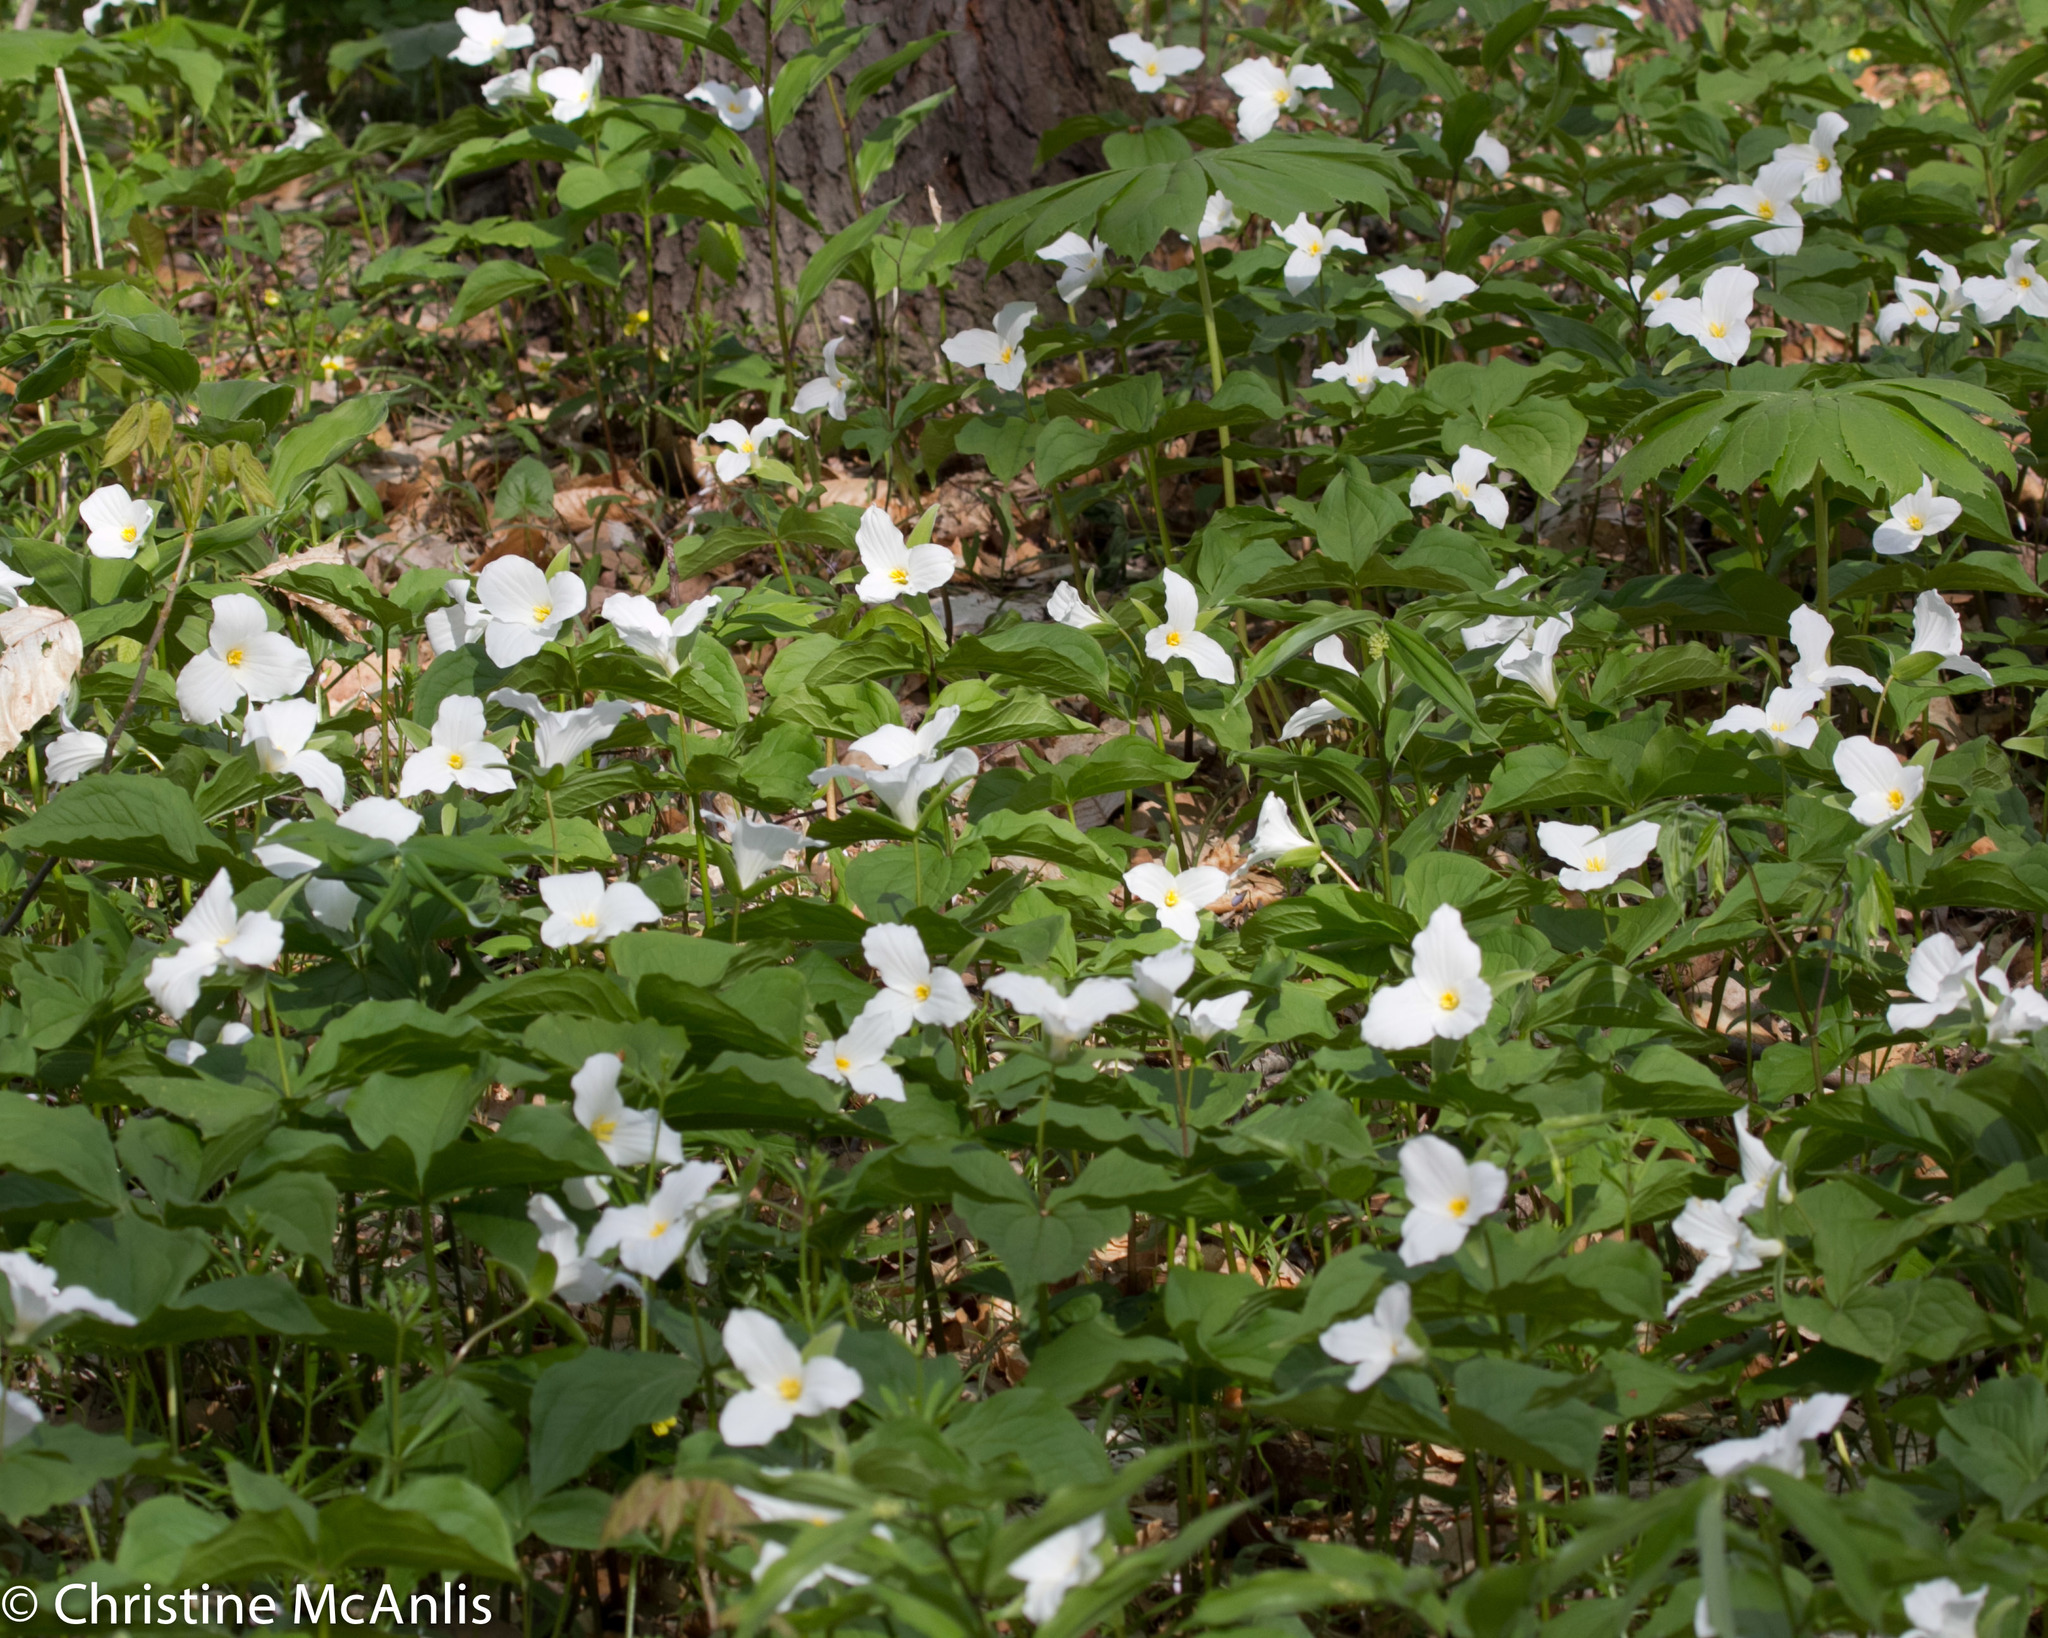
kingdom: Plantae
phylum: Tracheophyta
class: Liliopsida
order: Liliales
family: Melanthiaceae
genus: Trillium
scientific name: Trillium grandiflorum
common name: Great white trillium
